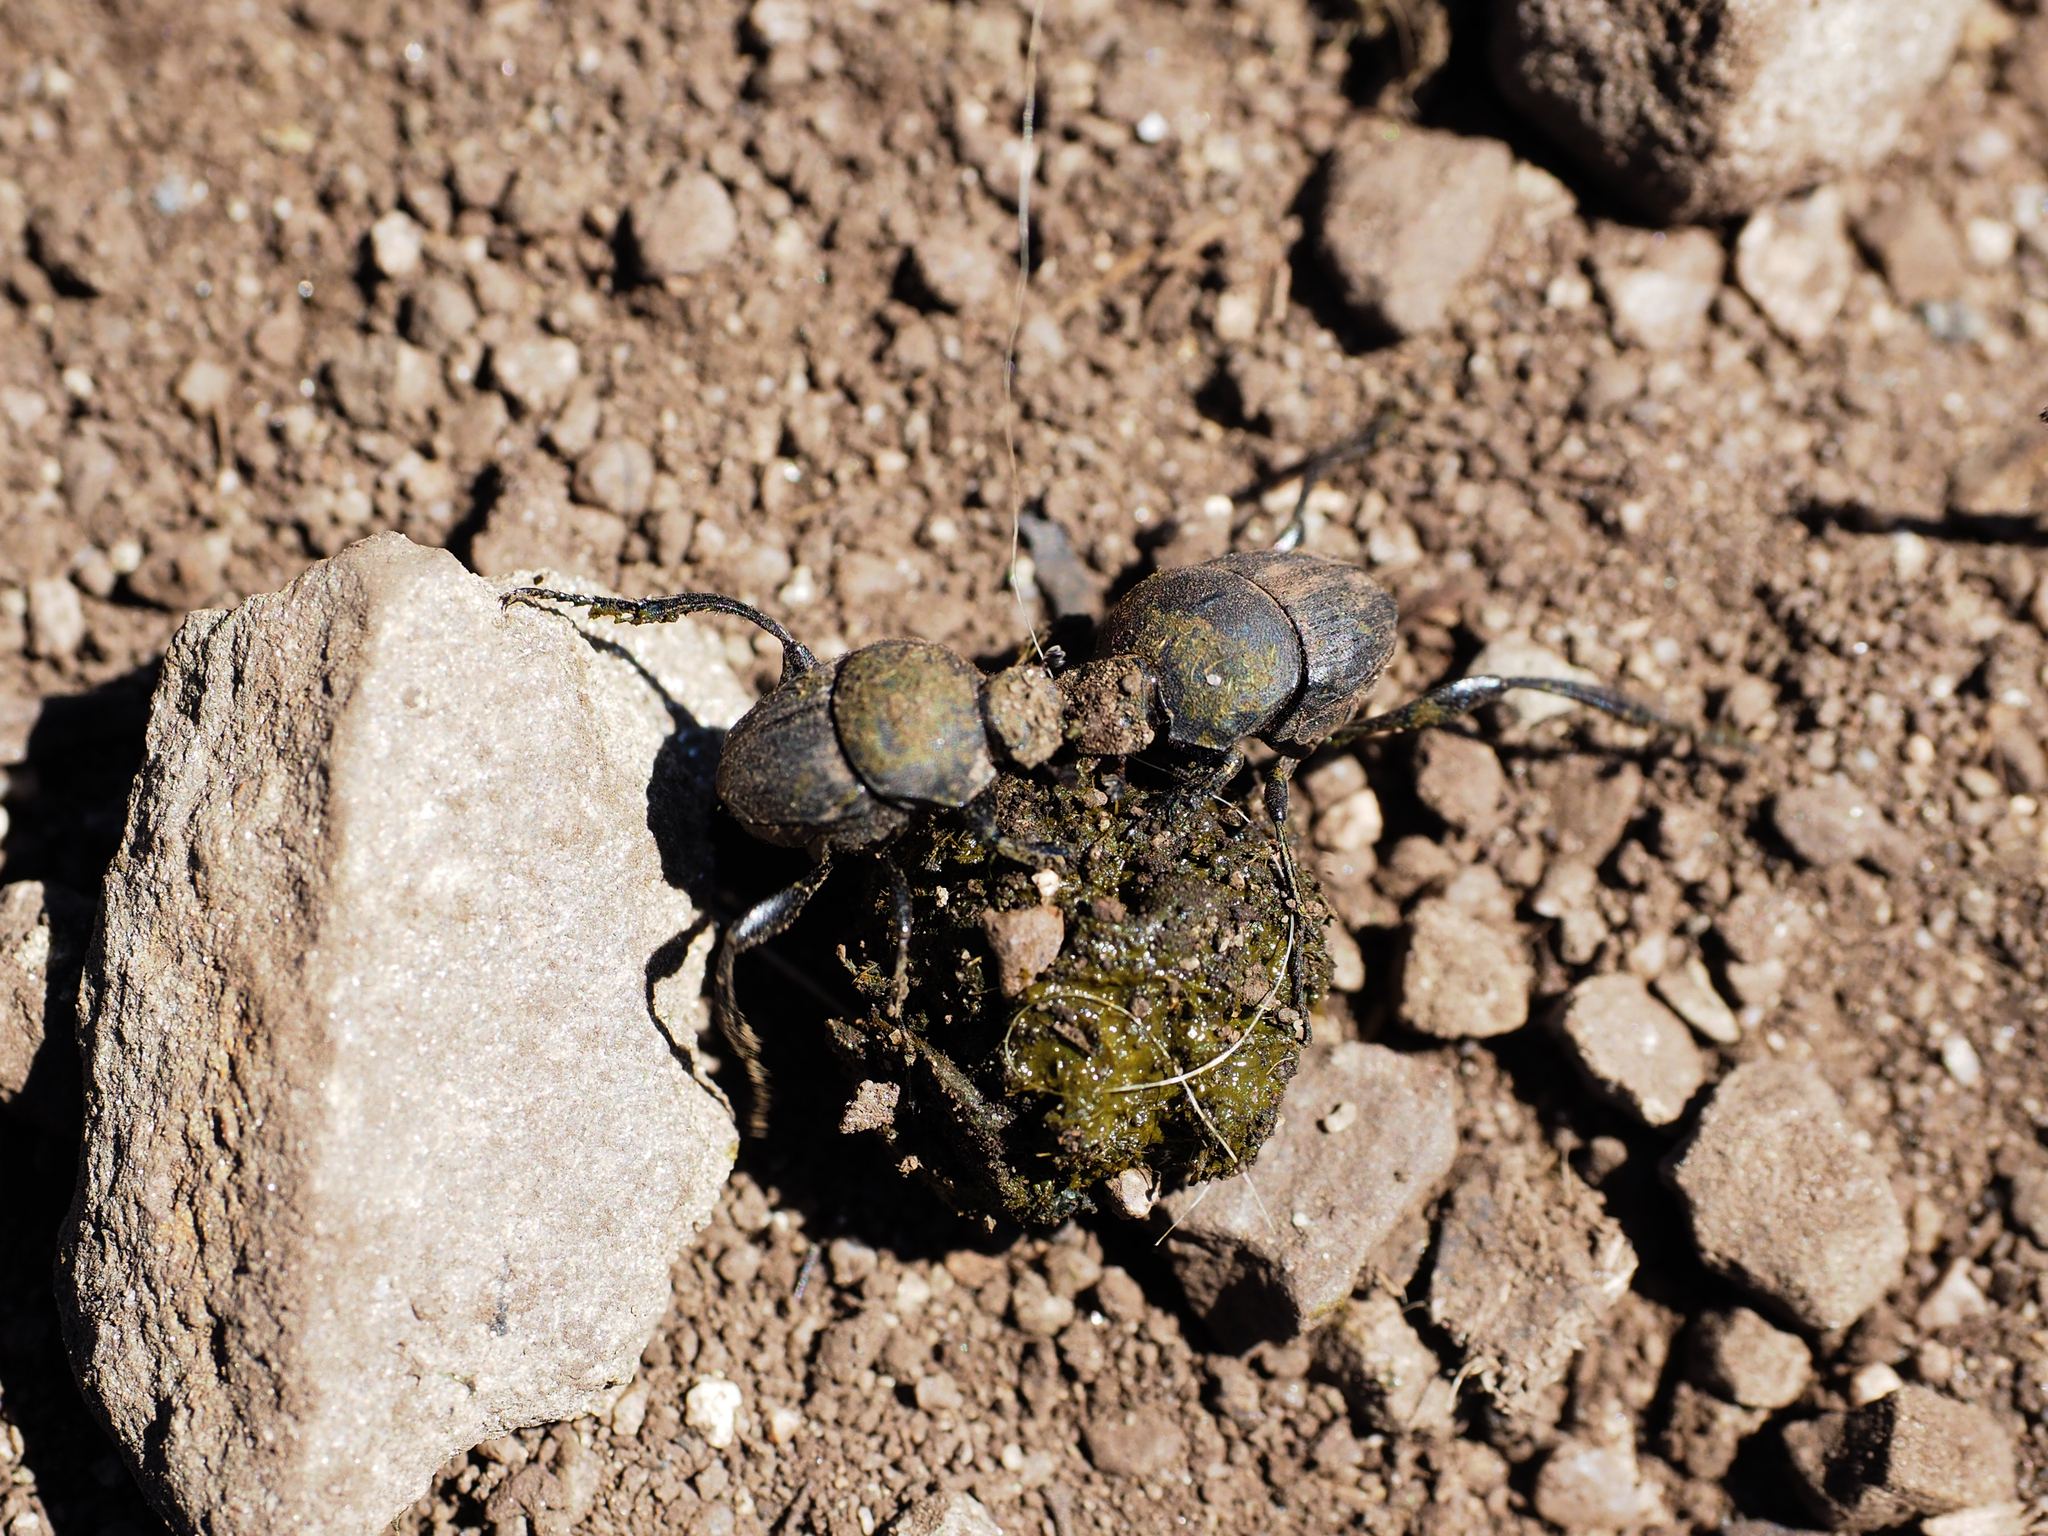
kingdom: Animalia
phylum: Arthropoda
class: Insecta
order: Coleoptera
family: Scarabaeidae
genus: Sisyphus
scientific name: Sisyphus schaefferi
